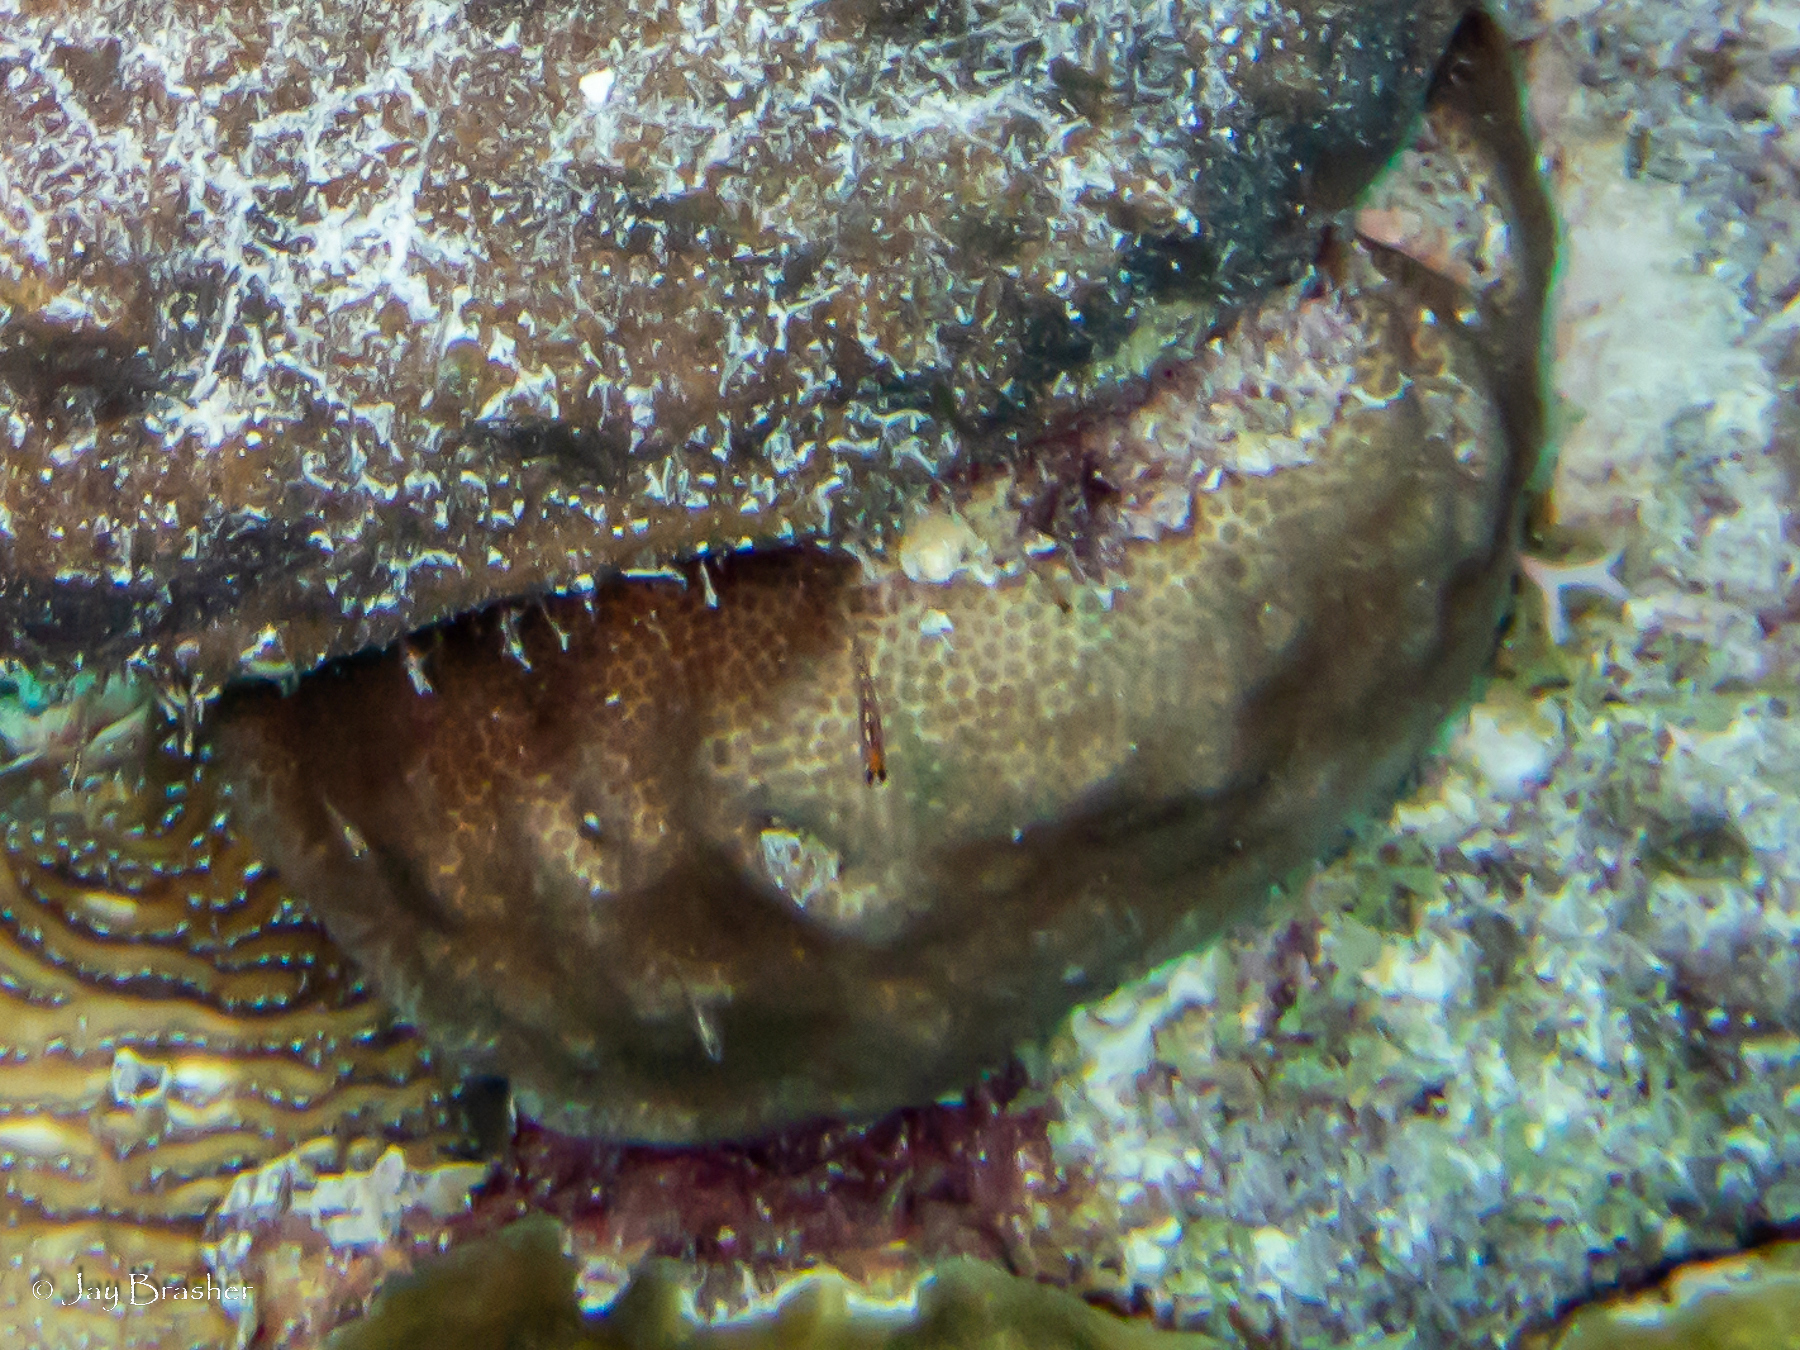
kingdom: Animalia
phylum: Cnidaria
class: Anthozoa
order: Scleractinia
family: Faviidae
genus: Solenastrea
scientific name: Solenastrea bournoni
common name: Smooth star coral
